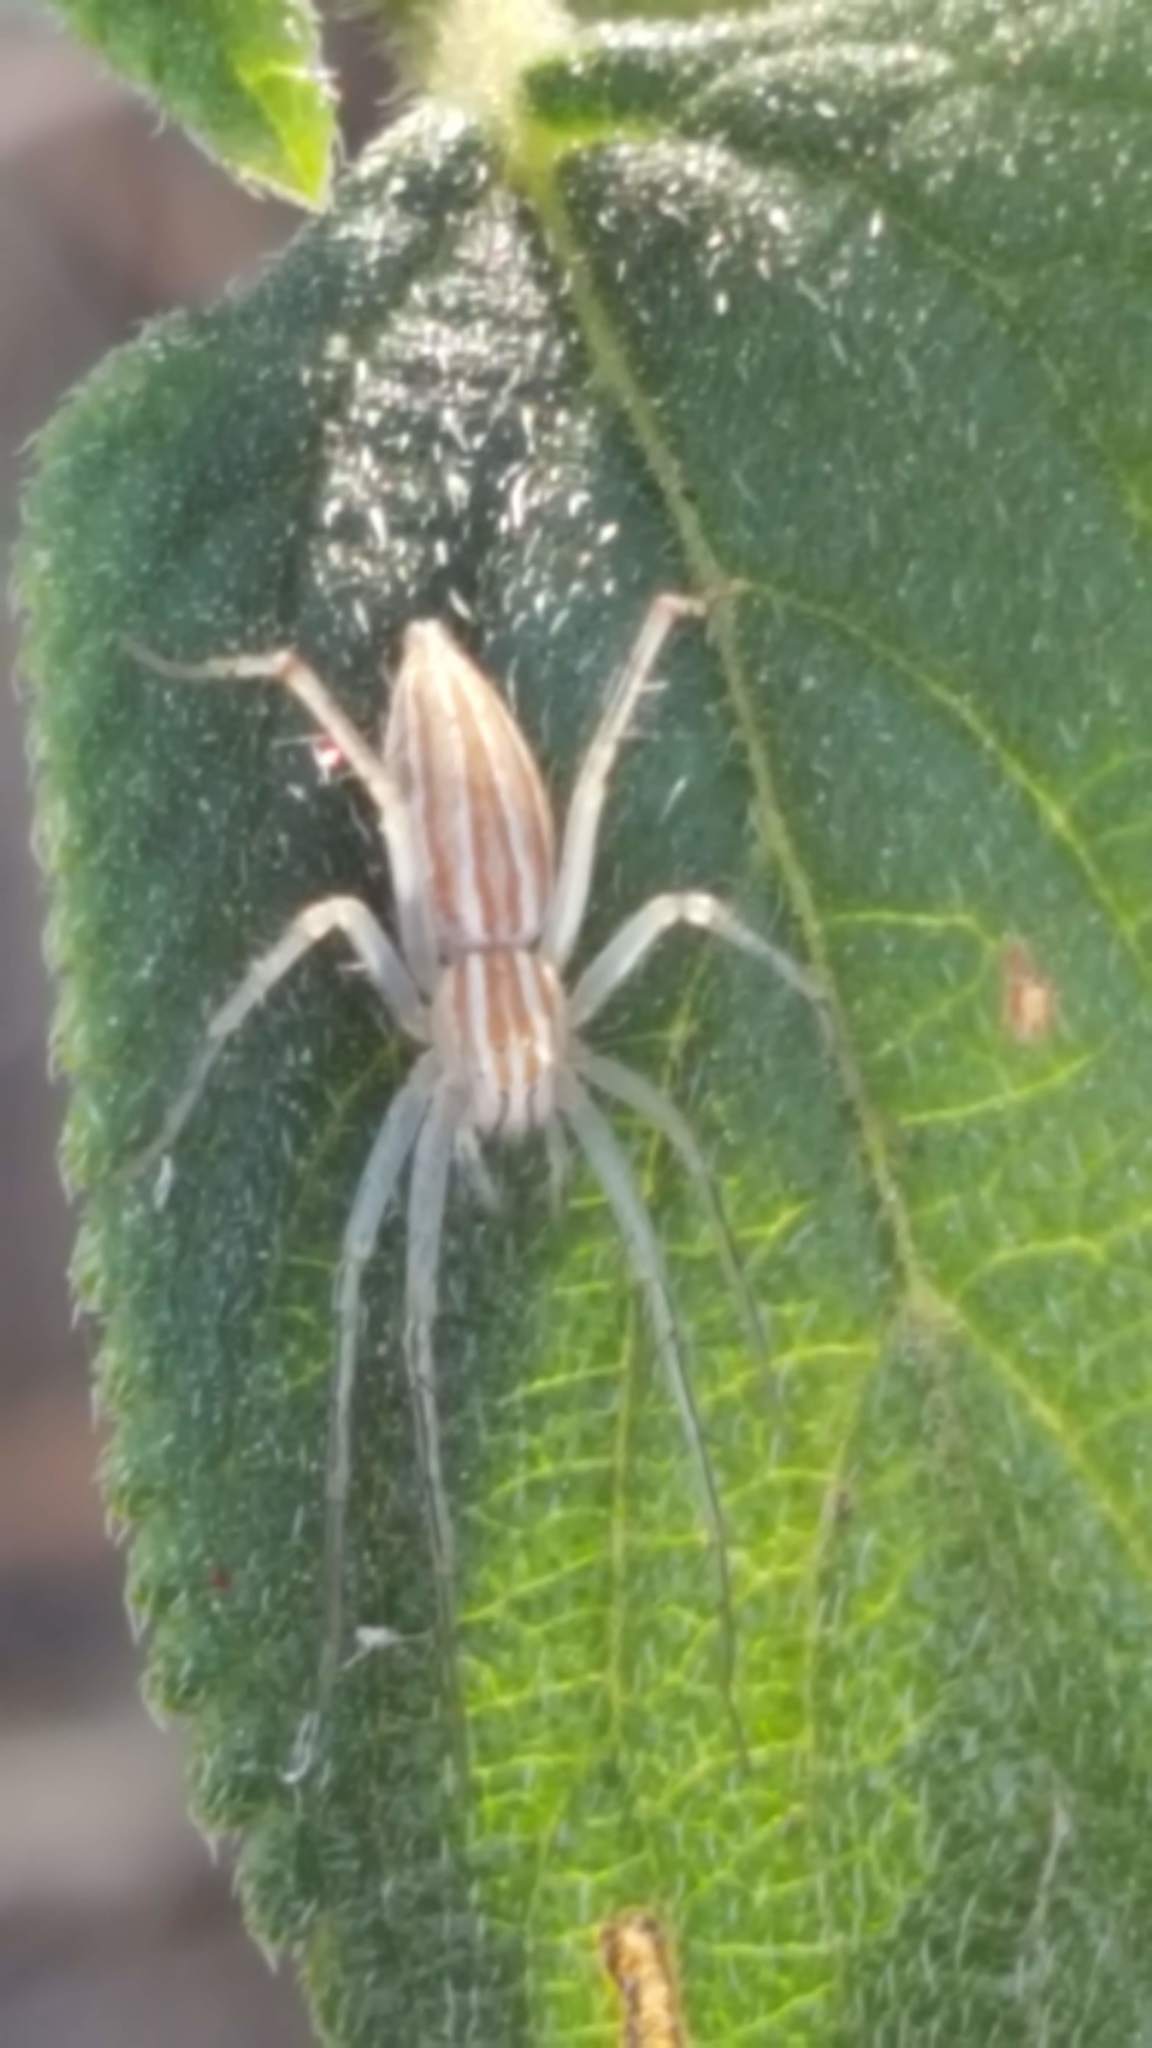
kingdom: Animalia
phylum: Arthropoda
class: Arachnida
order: Araneae
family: Oxyopidae
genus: Oxyopes
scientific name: Oxyopes macilentus
